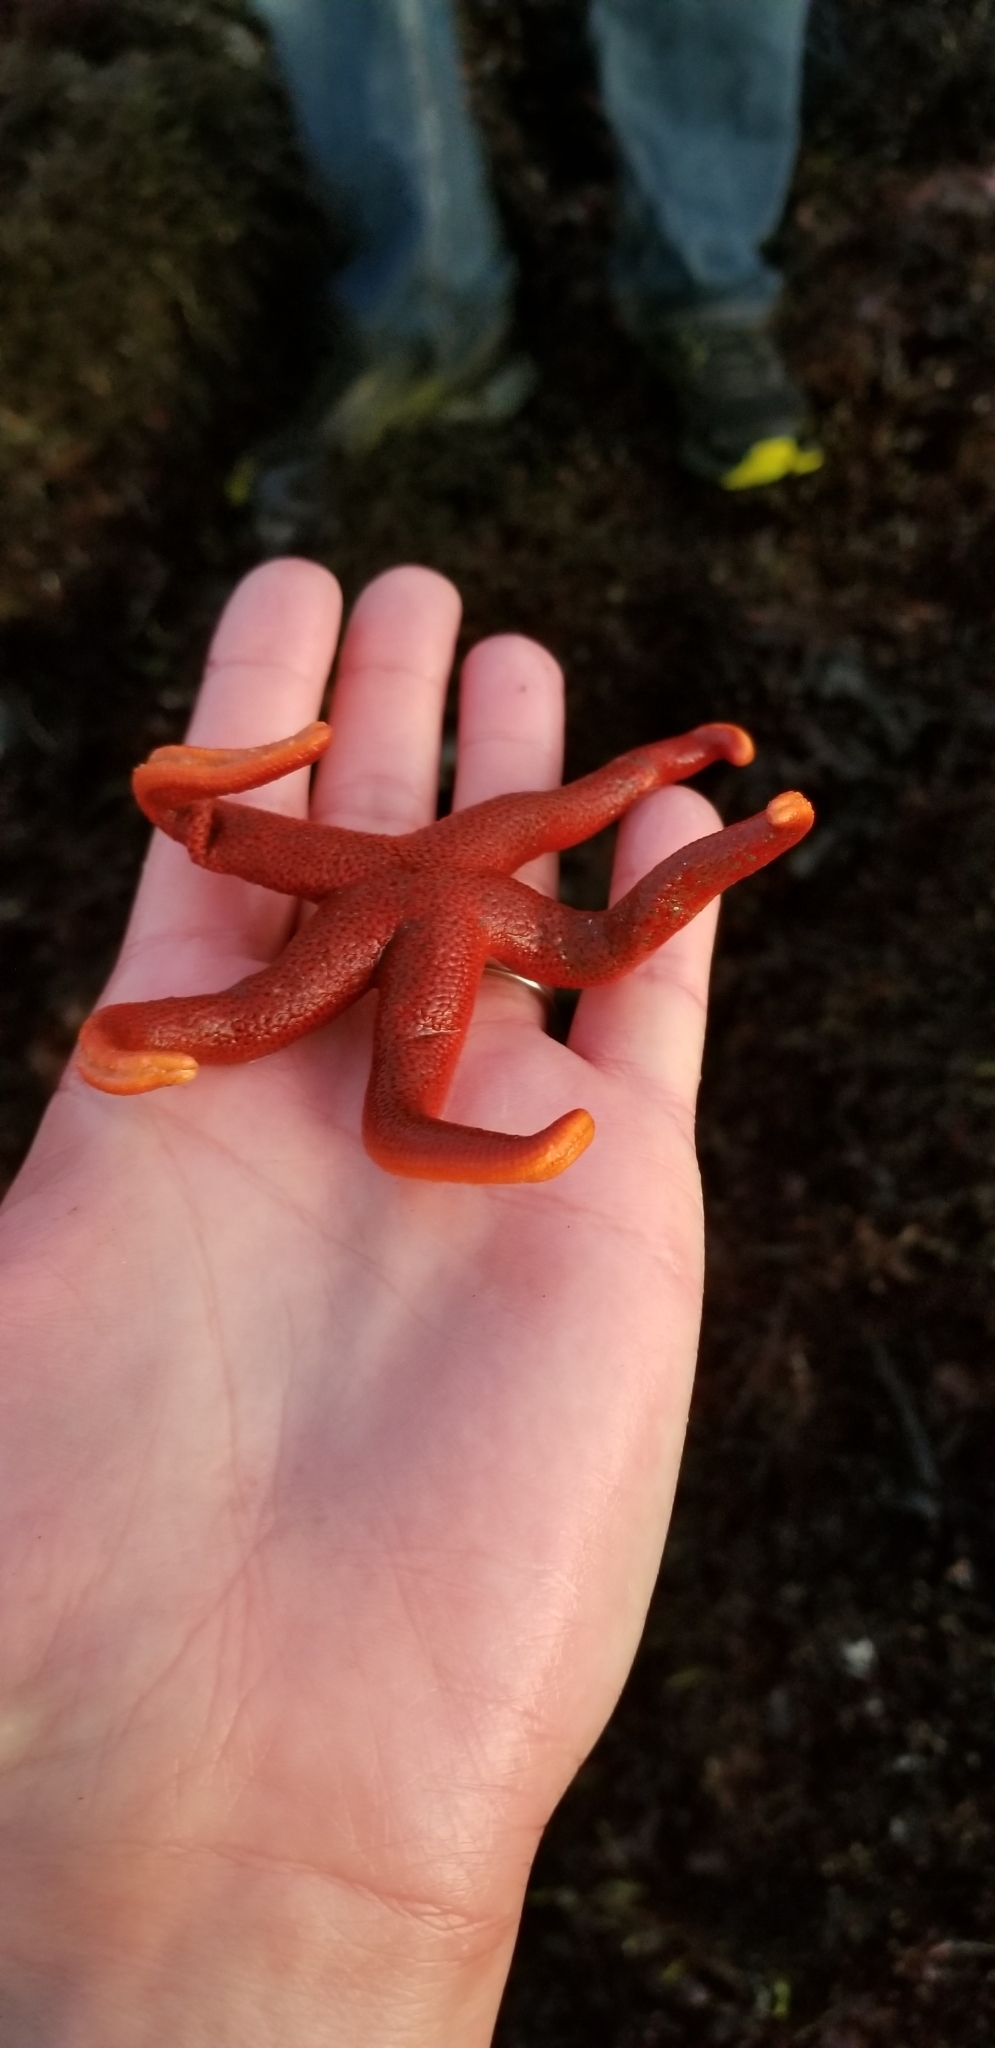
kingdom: Animalia
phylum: Echinodermata
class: Asteroidea
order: Spinulosida
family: Echinasteridae
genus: Henricia
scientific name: Henricia leviuscula
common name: Pacific blood star
